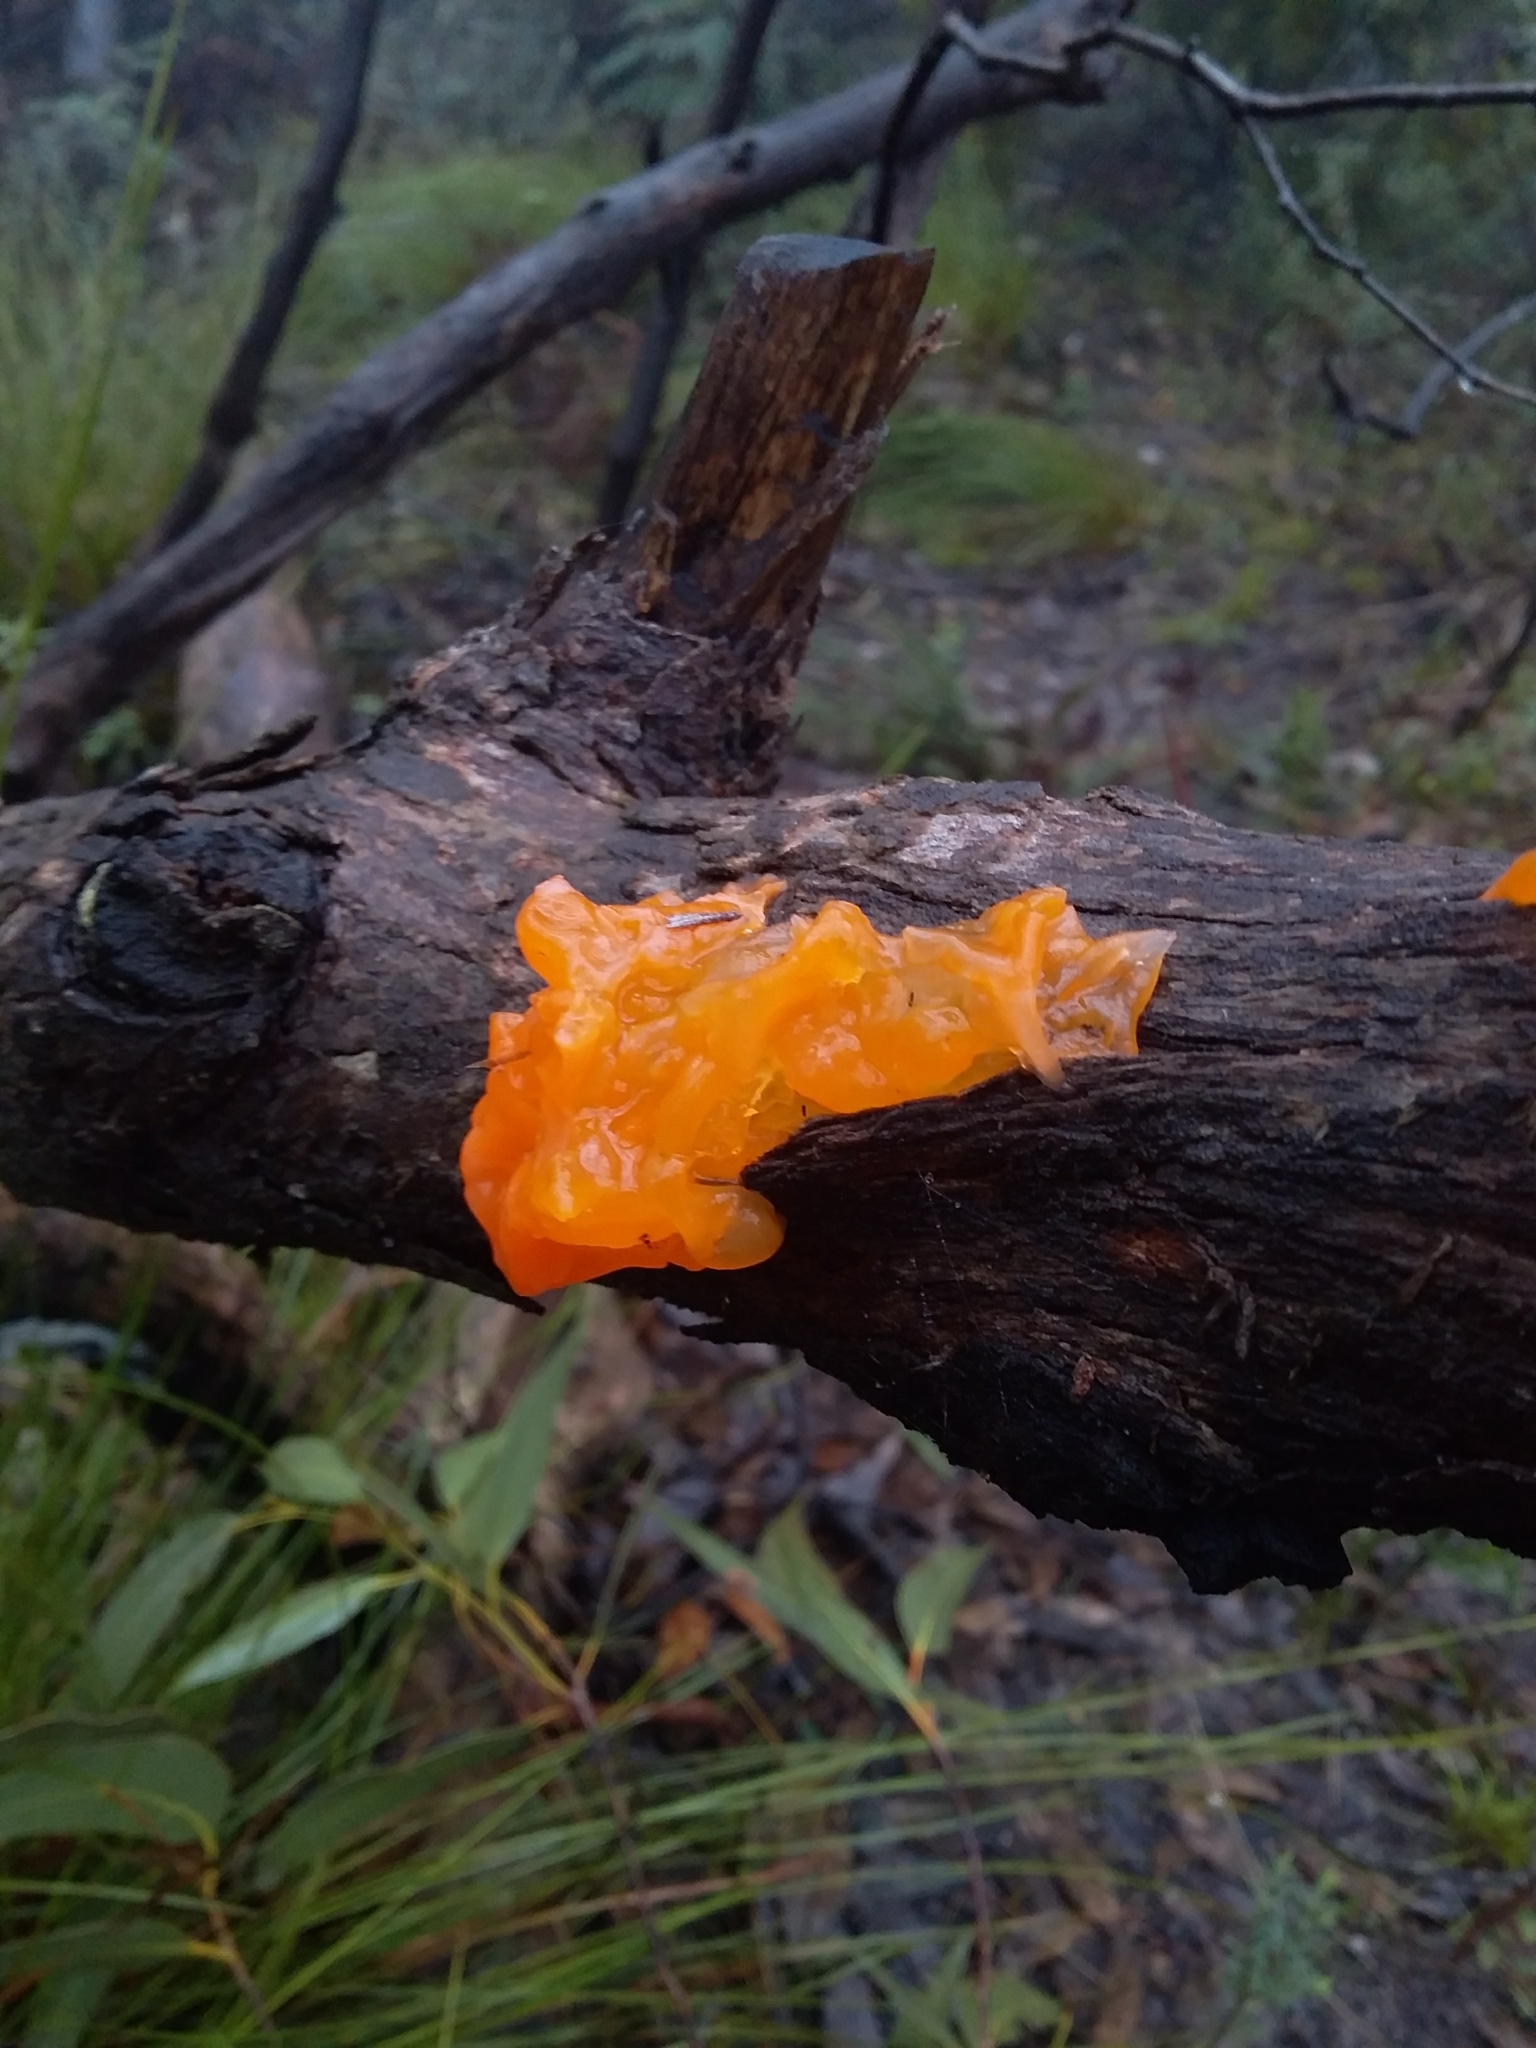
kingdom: Fungi
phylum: Basidiomycota
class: Tremellomycetes
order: Tremellales
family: Tremellaceae
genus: Tremella
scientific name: Tremella mesenterica
